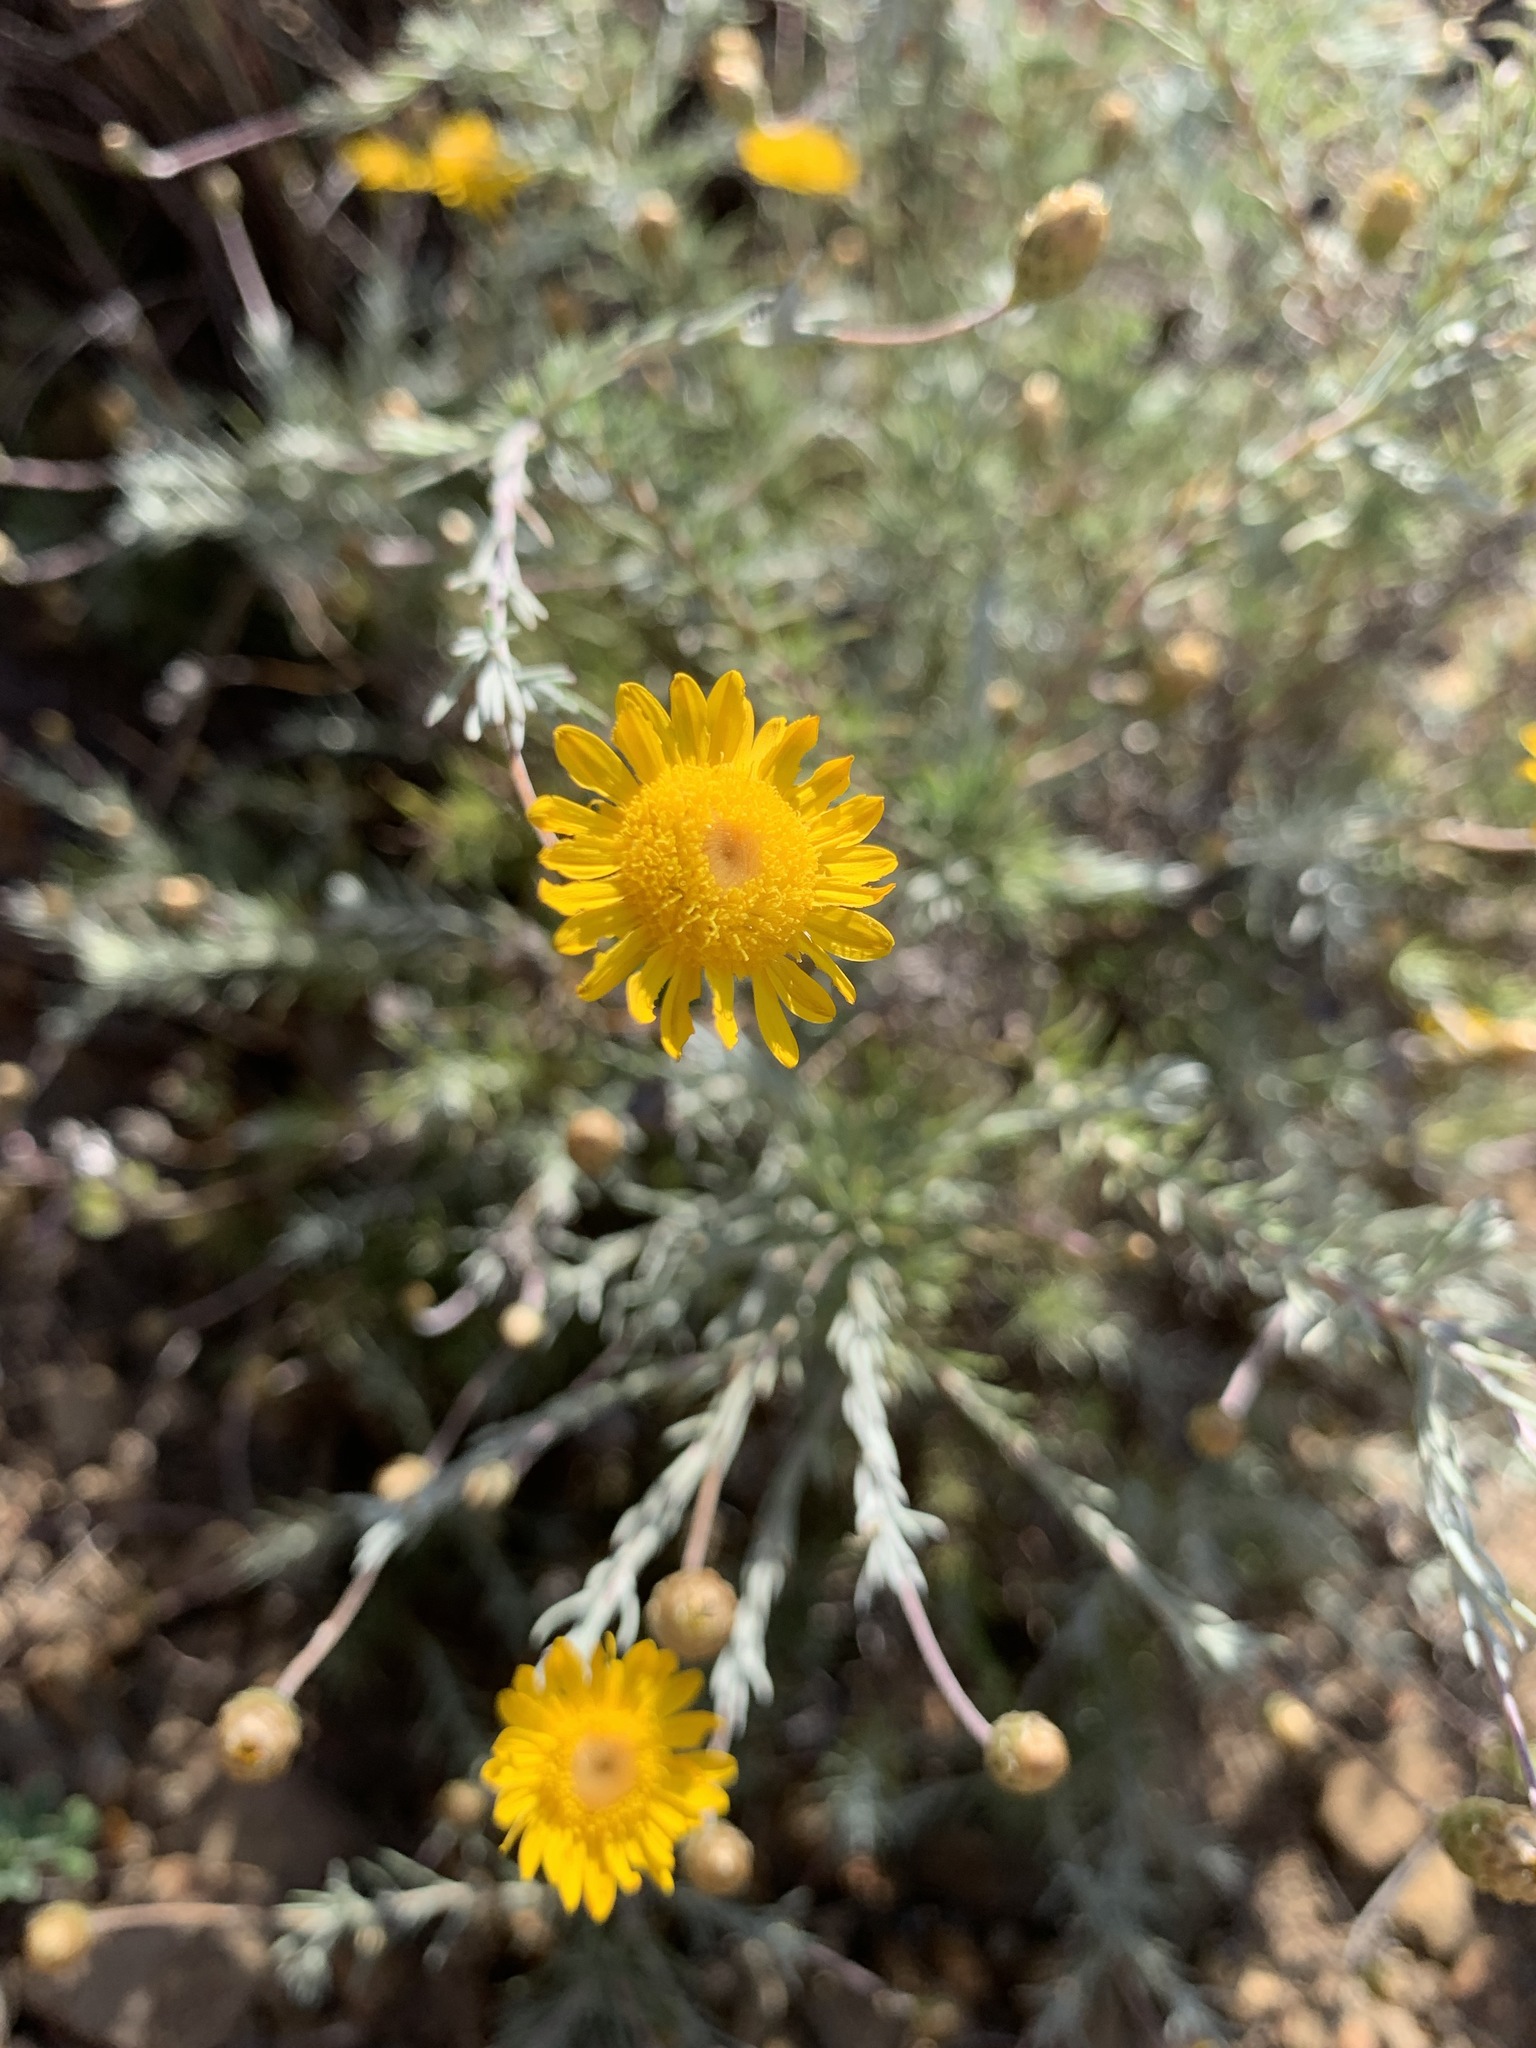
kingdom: Plantae
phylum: Tracheophyta
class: Magnoliopsida
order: Asterales
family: Asteraceae
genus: Leysera
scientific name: Leysera gnaphalodes
